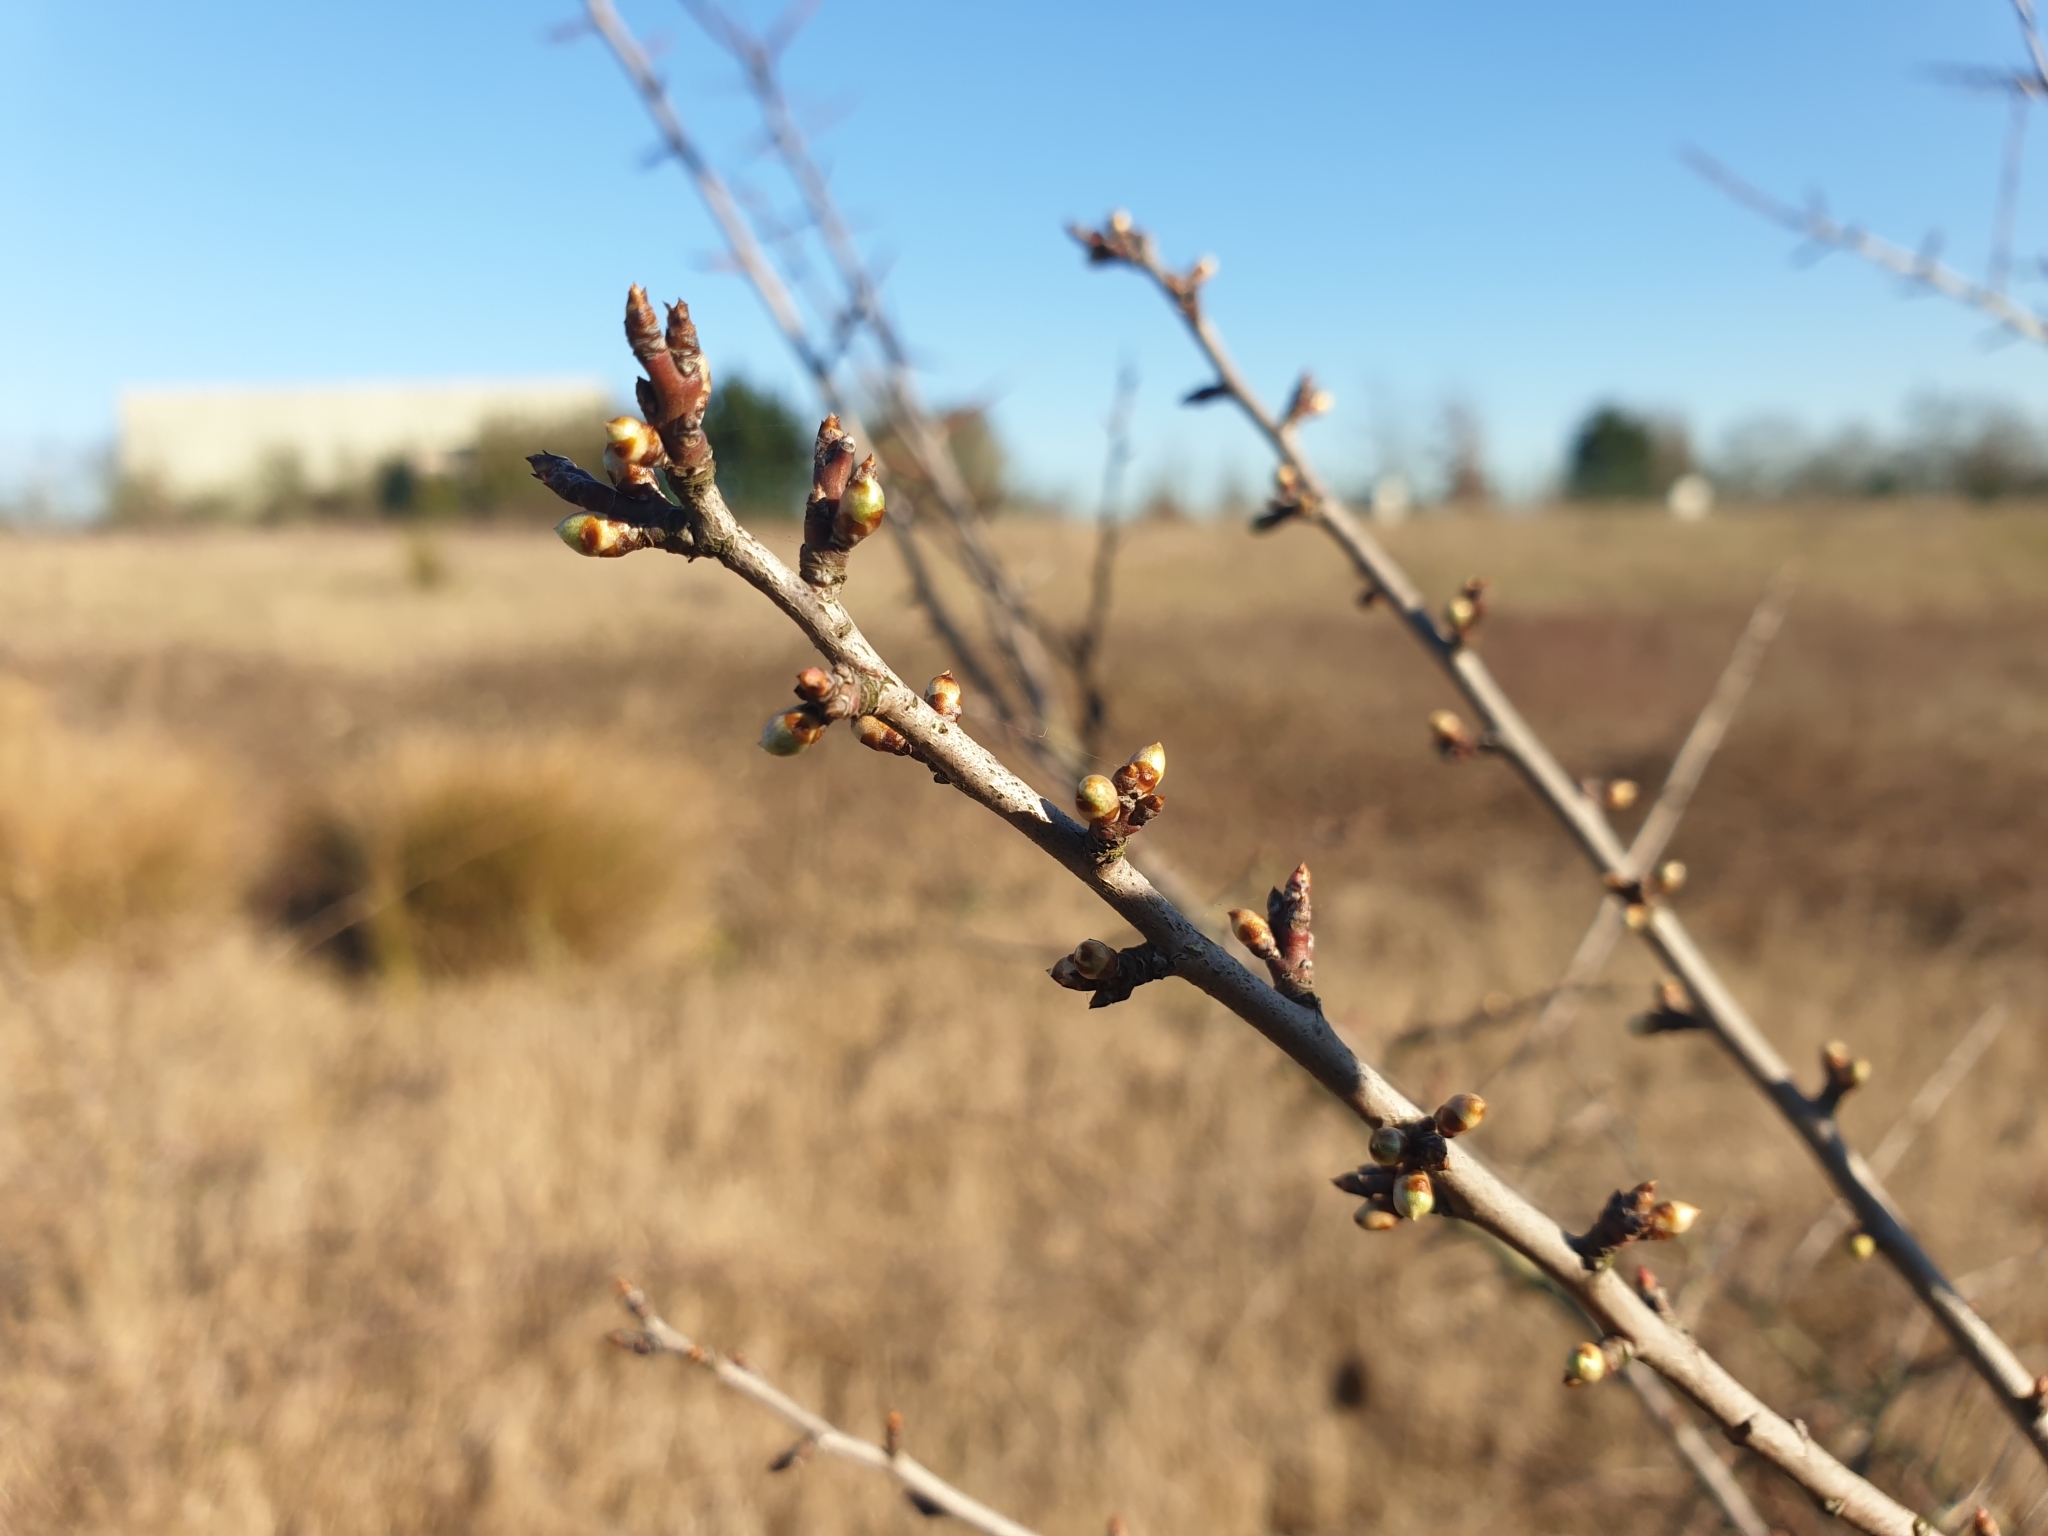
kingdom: Plantae
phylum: Tracheophyta
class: Magnoliopsida
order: Rosales
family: Rosaceae
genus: Prunus
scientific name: Prunus spinosa
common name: Blackthorn
